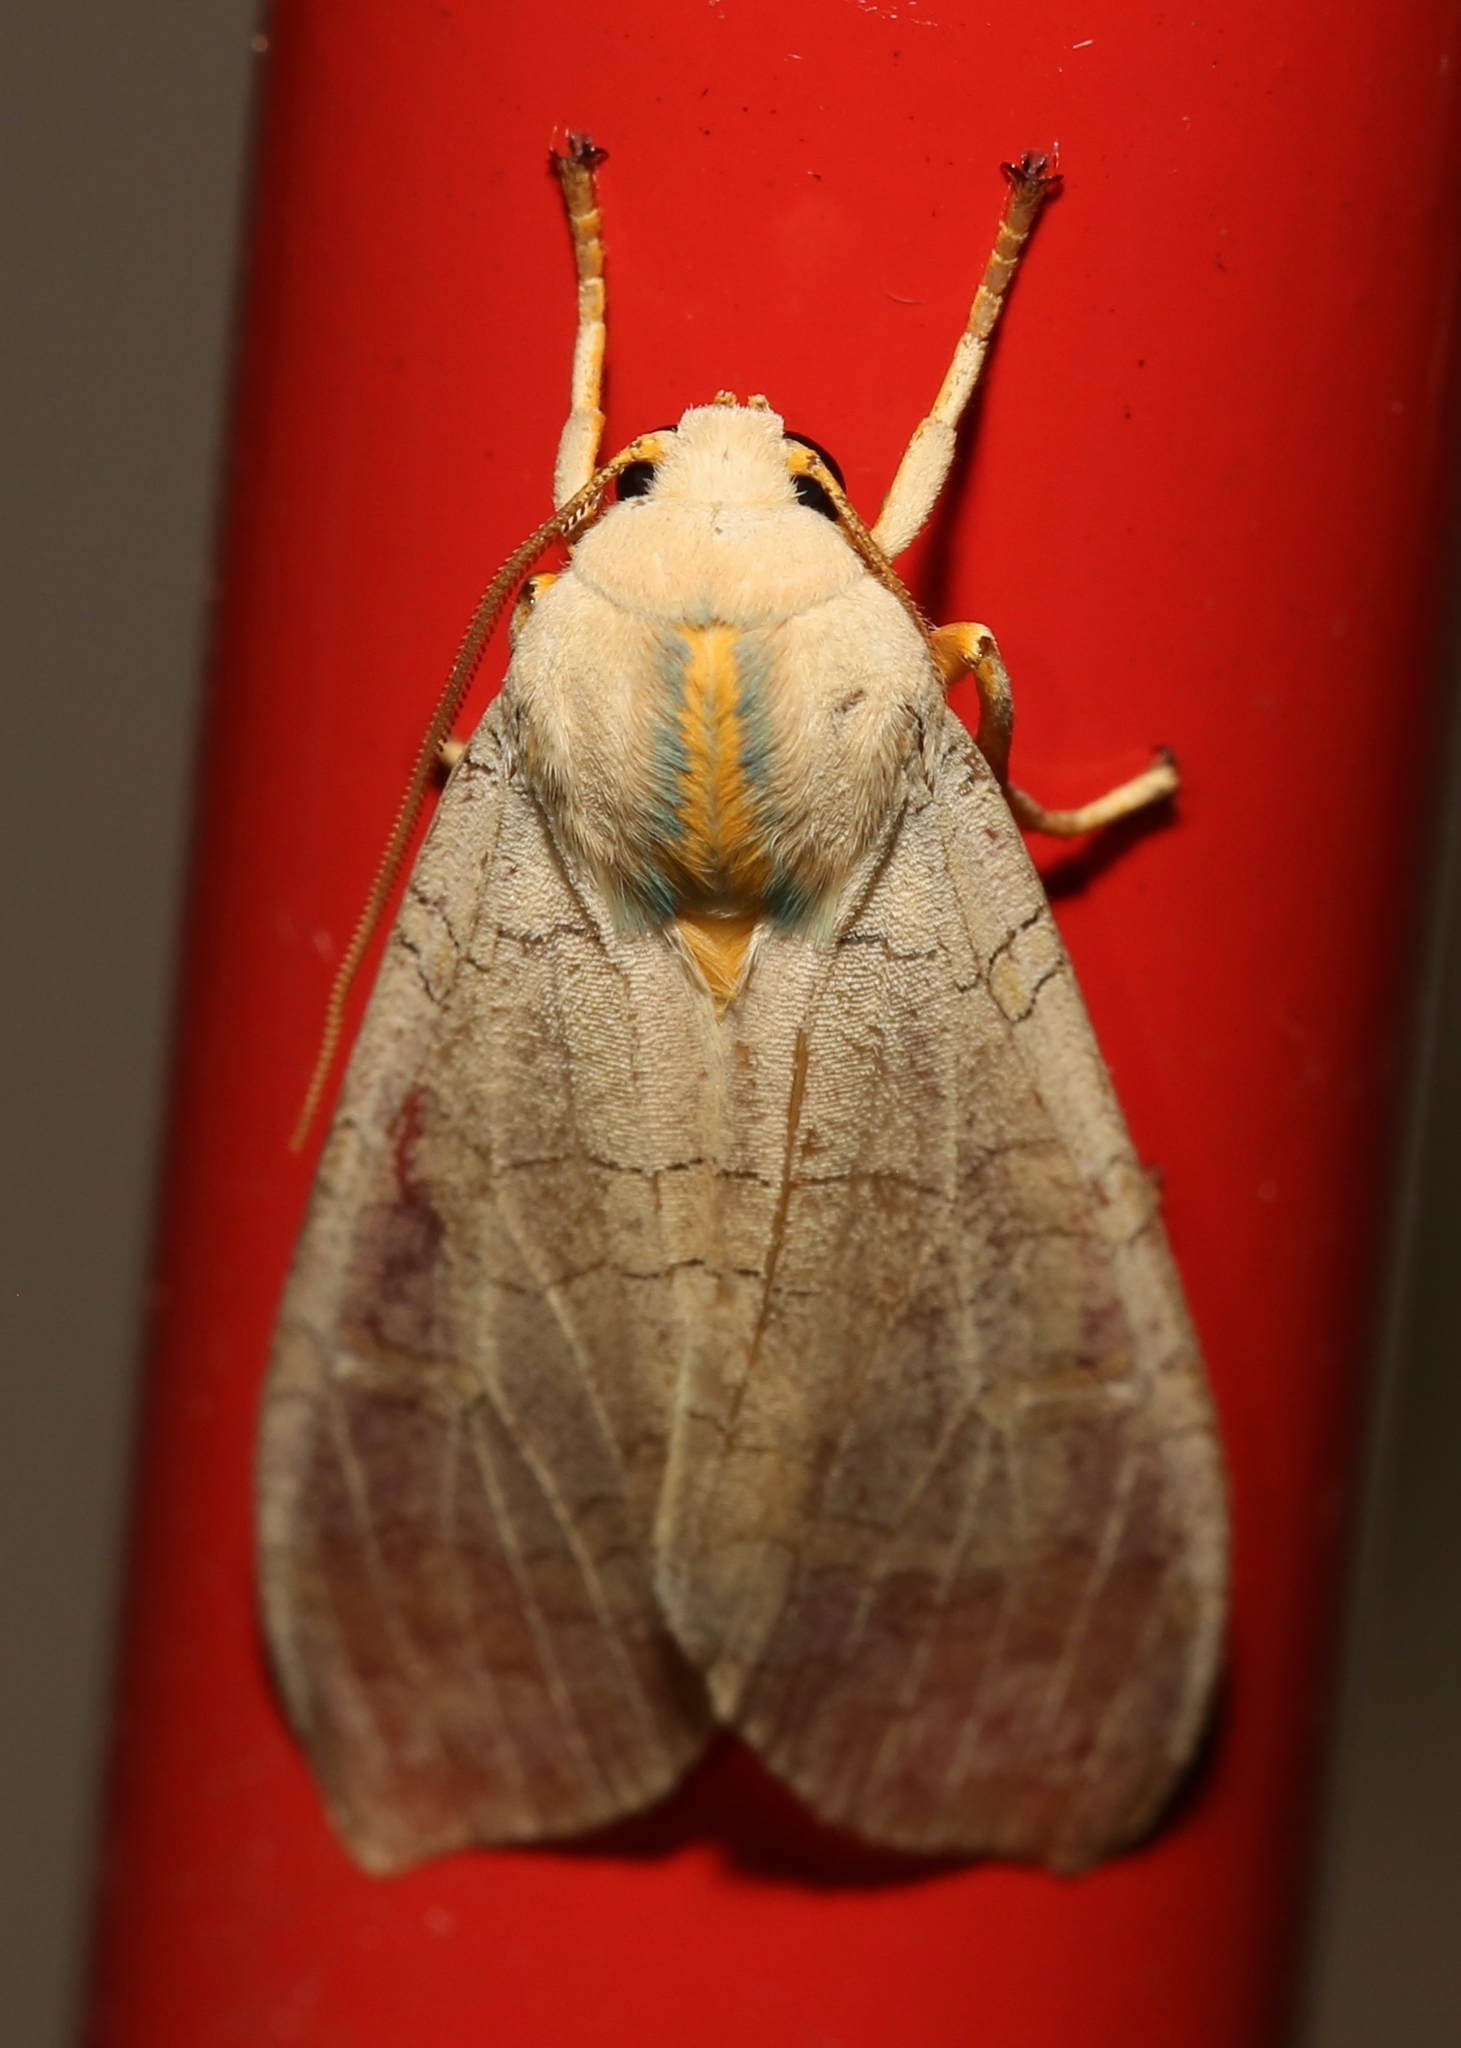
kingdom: Animalia
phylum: Arthropoda
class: Insecta
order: Lepidoptera
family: Erebidae
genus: Halysidota
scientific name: Halysidota
